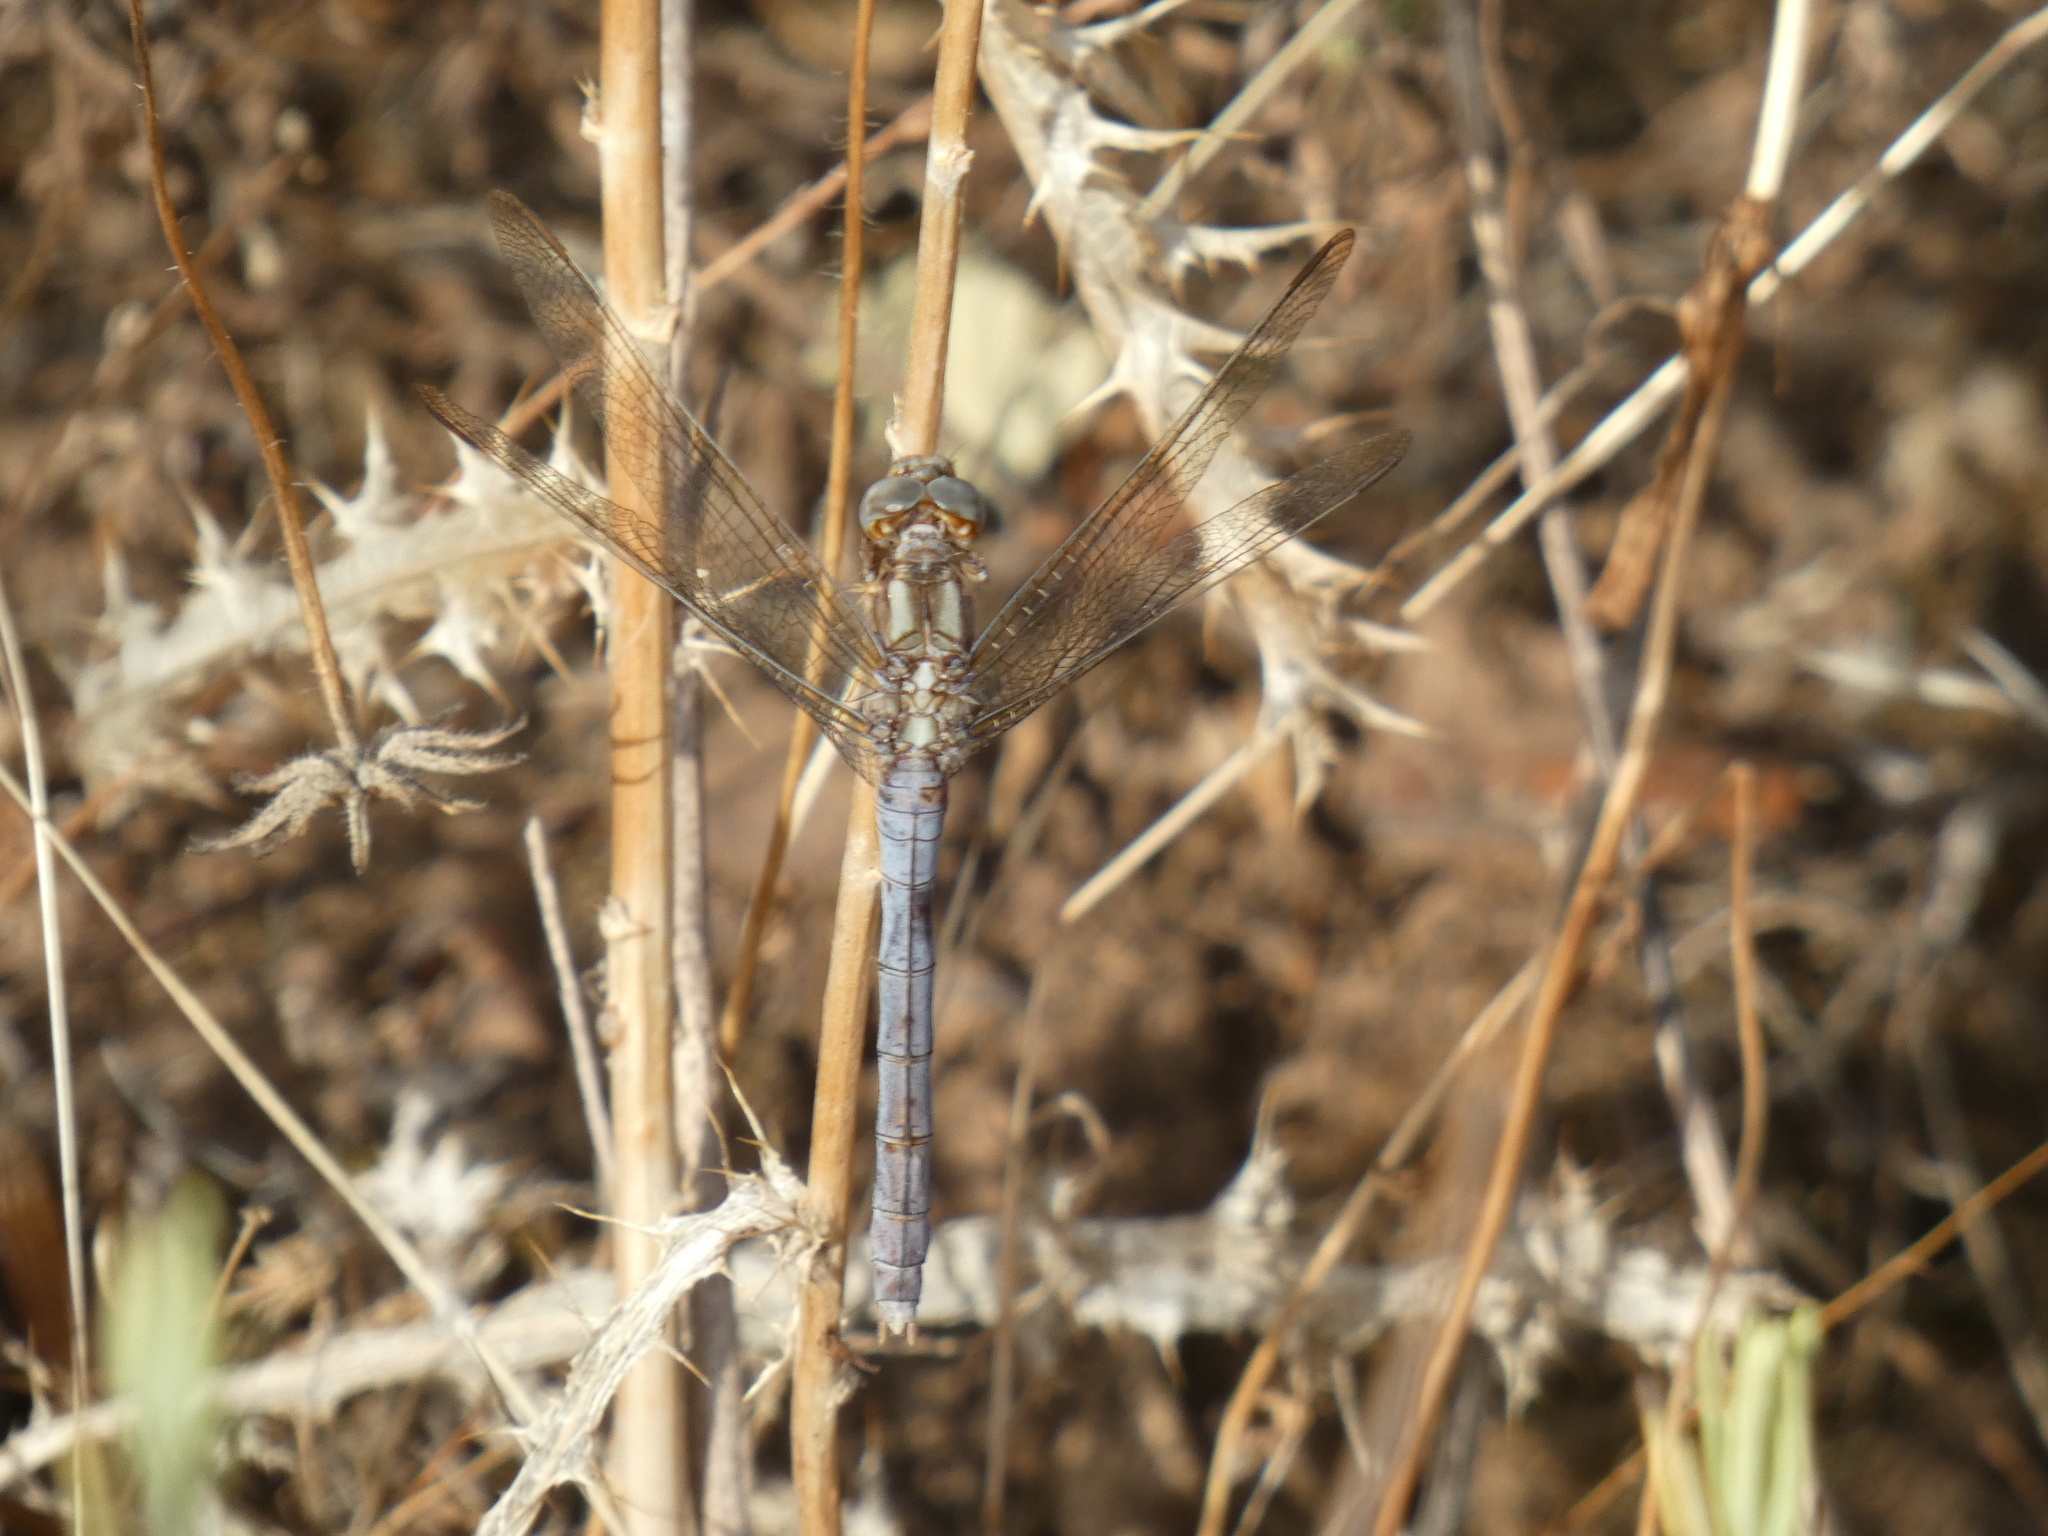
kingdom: Animalia
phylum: Arthropoda
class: Insecta
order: Odonata
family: Libellulidae
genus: Orthetrum
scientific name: Orthetrum coerulescens
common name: Keeled skimmer
